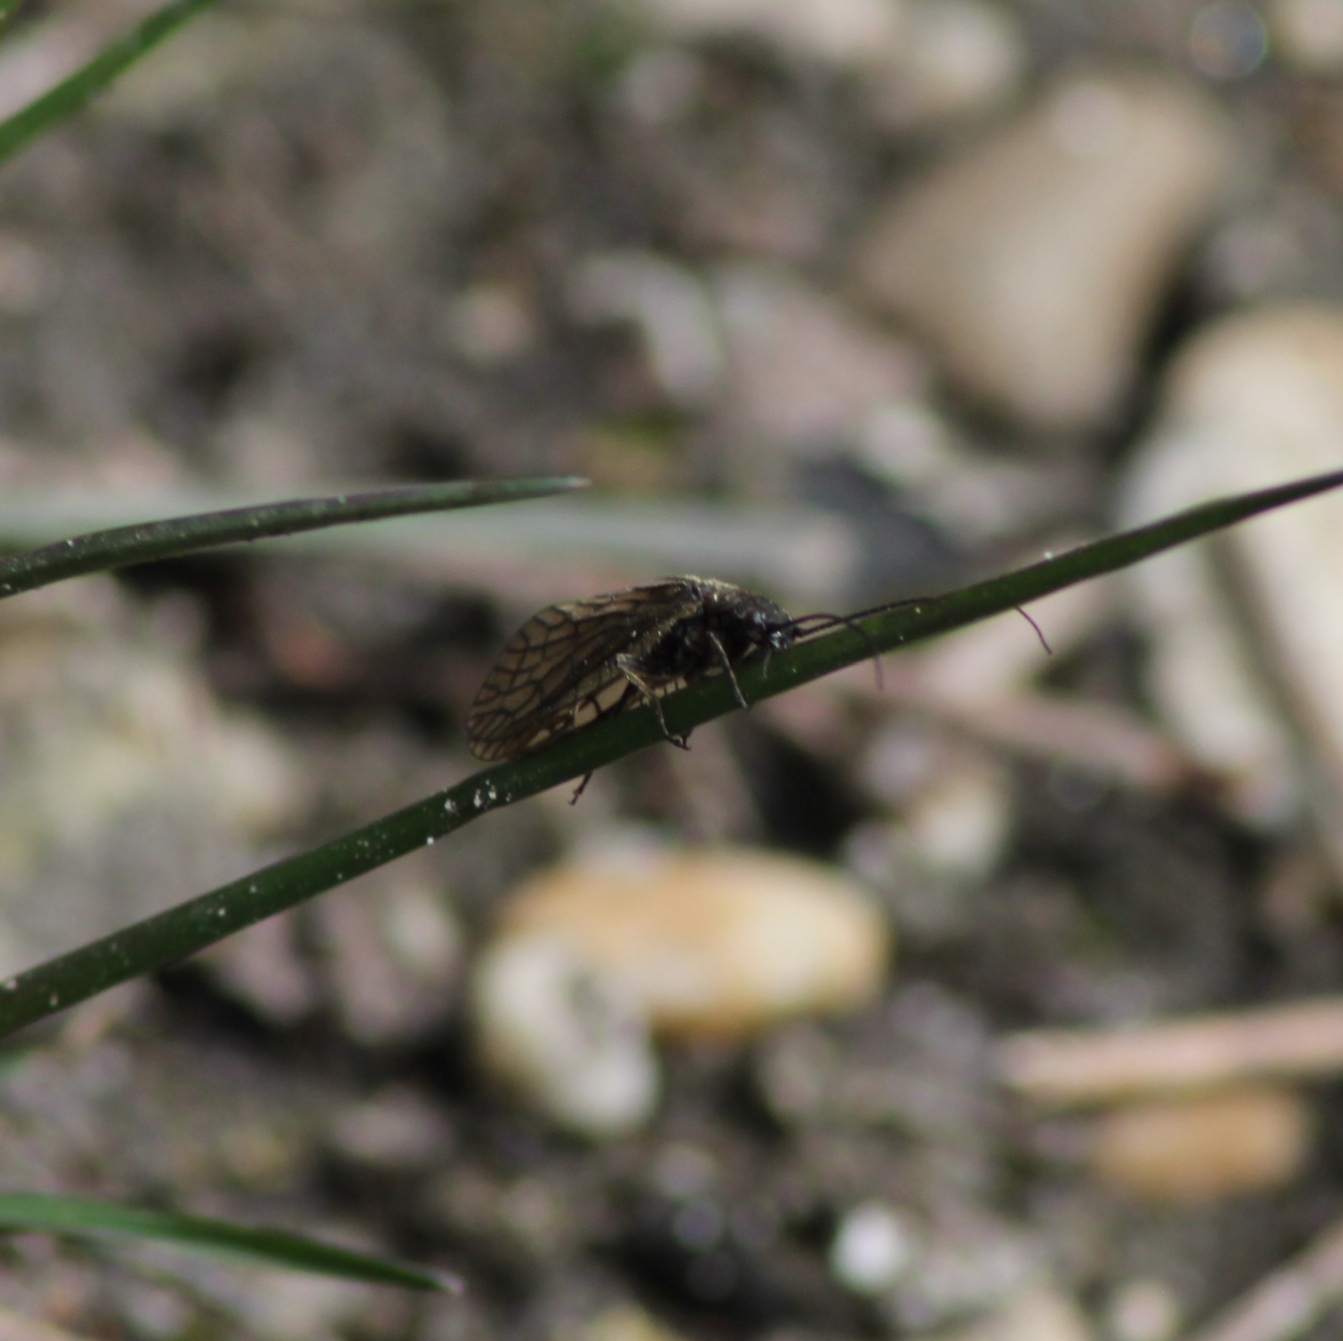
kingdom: Animalia
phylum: Arthropoda
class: Insecta
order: Megaloptera
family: Sialidae
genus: Sialis
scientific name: Sialis
